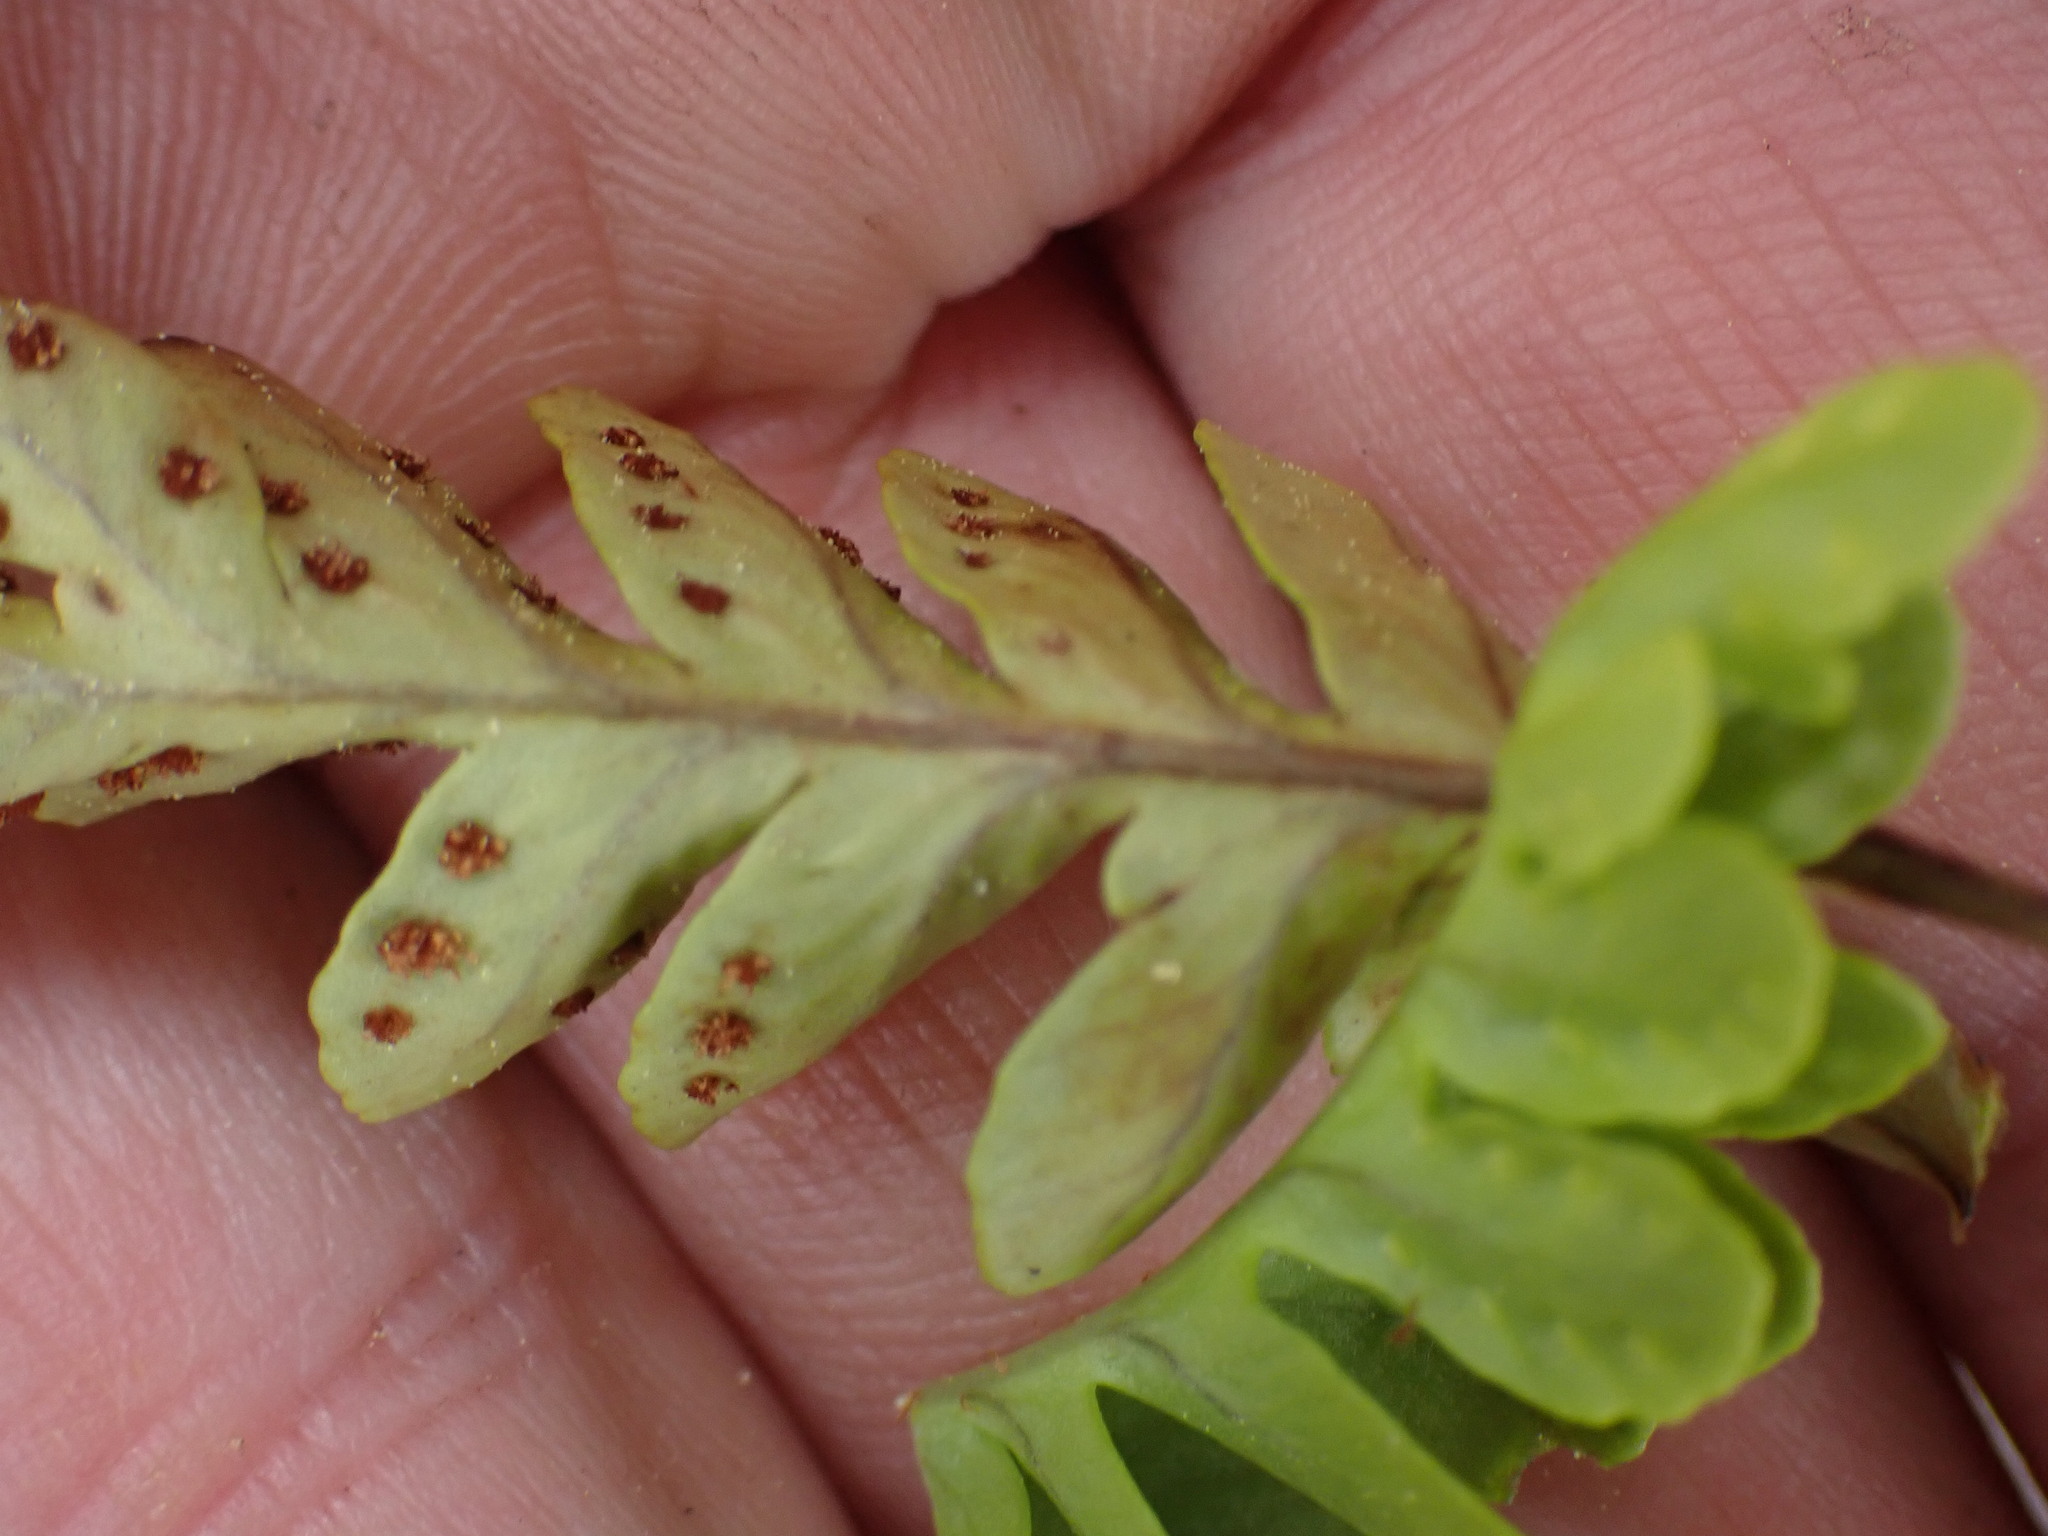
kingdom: Plantae
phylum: Tracheophyta
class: Polypodiopsida
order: Polypodiales
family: Polypodiaceae
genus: Polypodium
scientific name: Polypodium amorphum
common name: Pacific polypody
